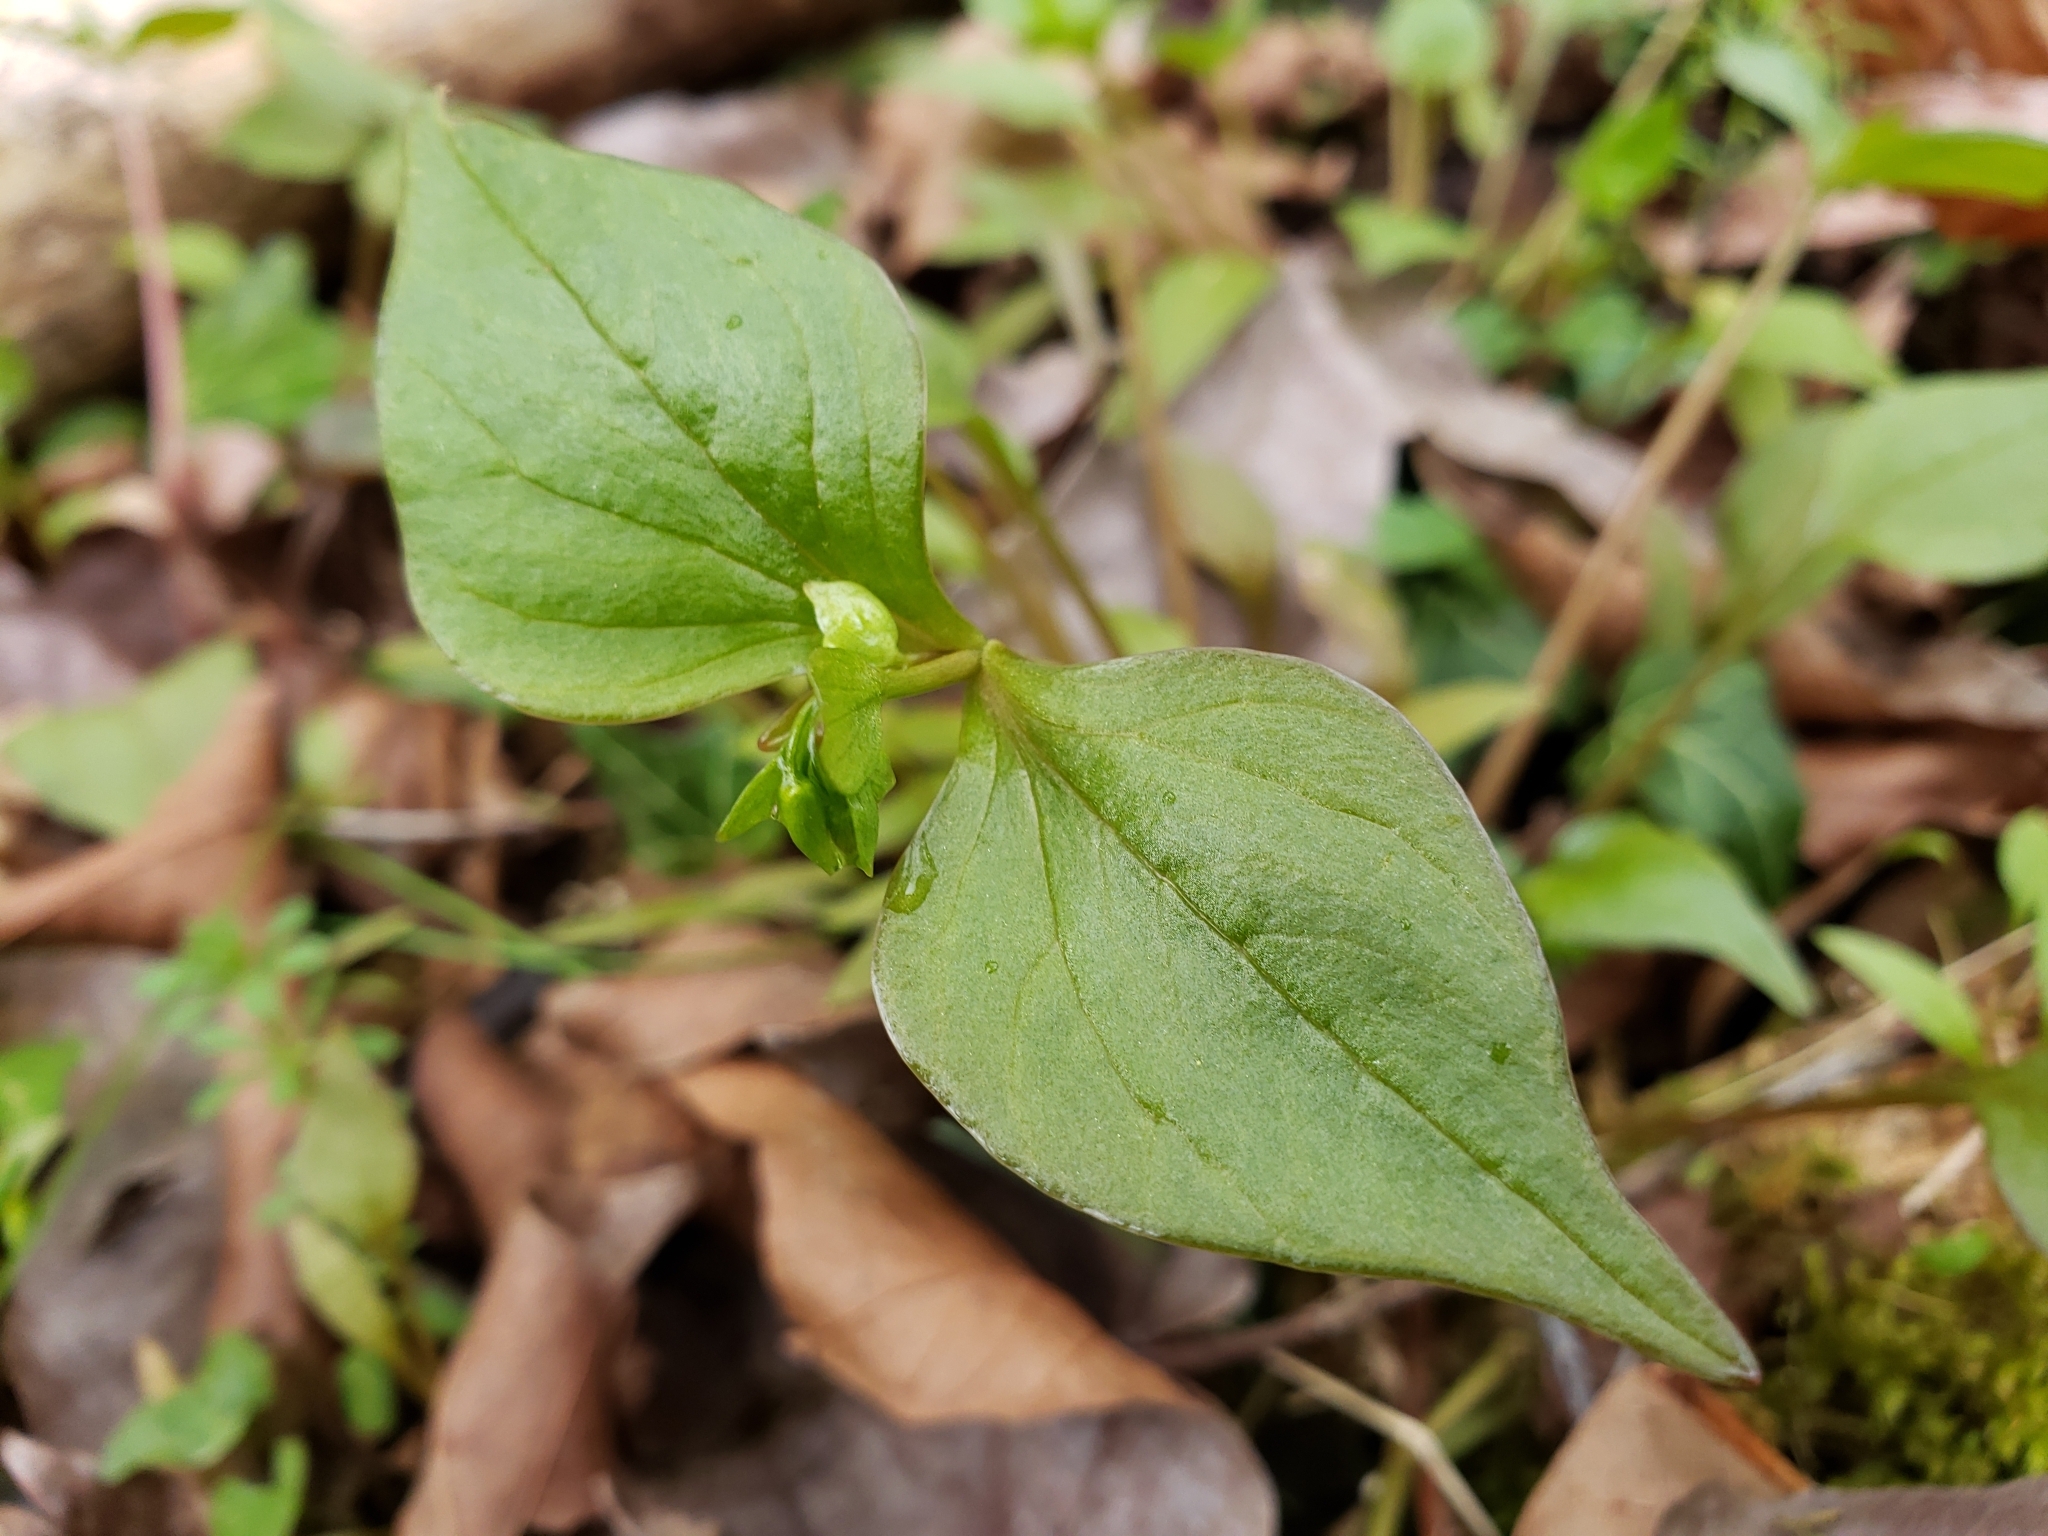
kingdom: Plantae
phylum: Tracheophyta
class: Magnoliopsida
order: Caryophyllales
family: Montiaceae
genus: Claytonia
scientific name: Claytonia sibirica
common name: Pink purslane
